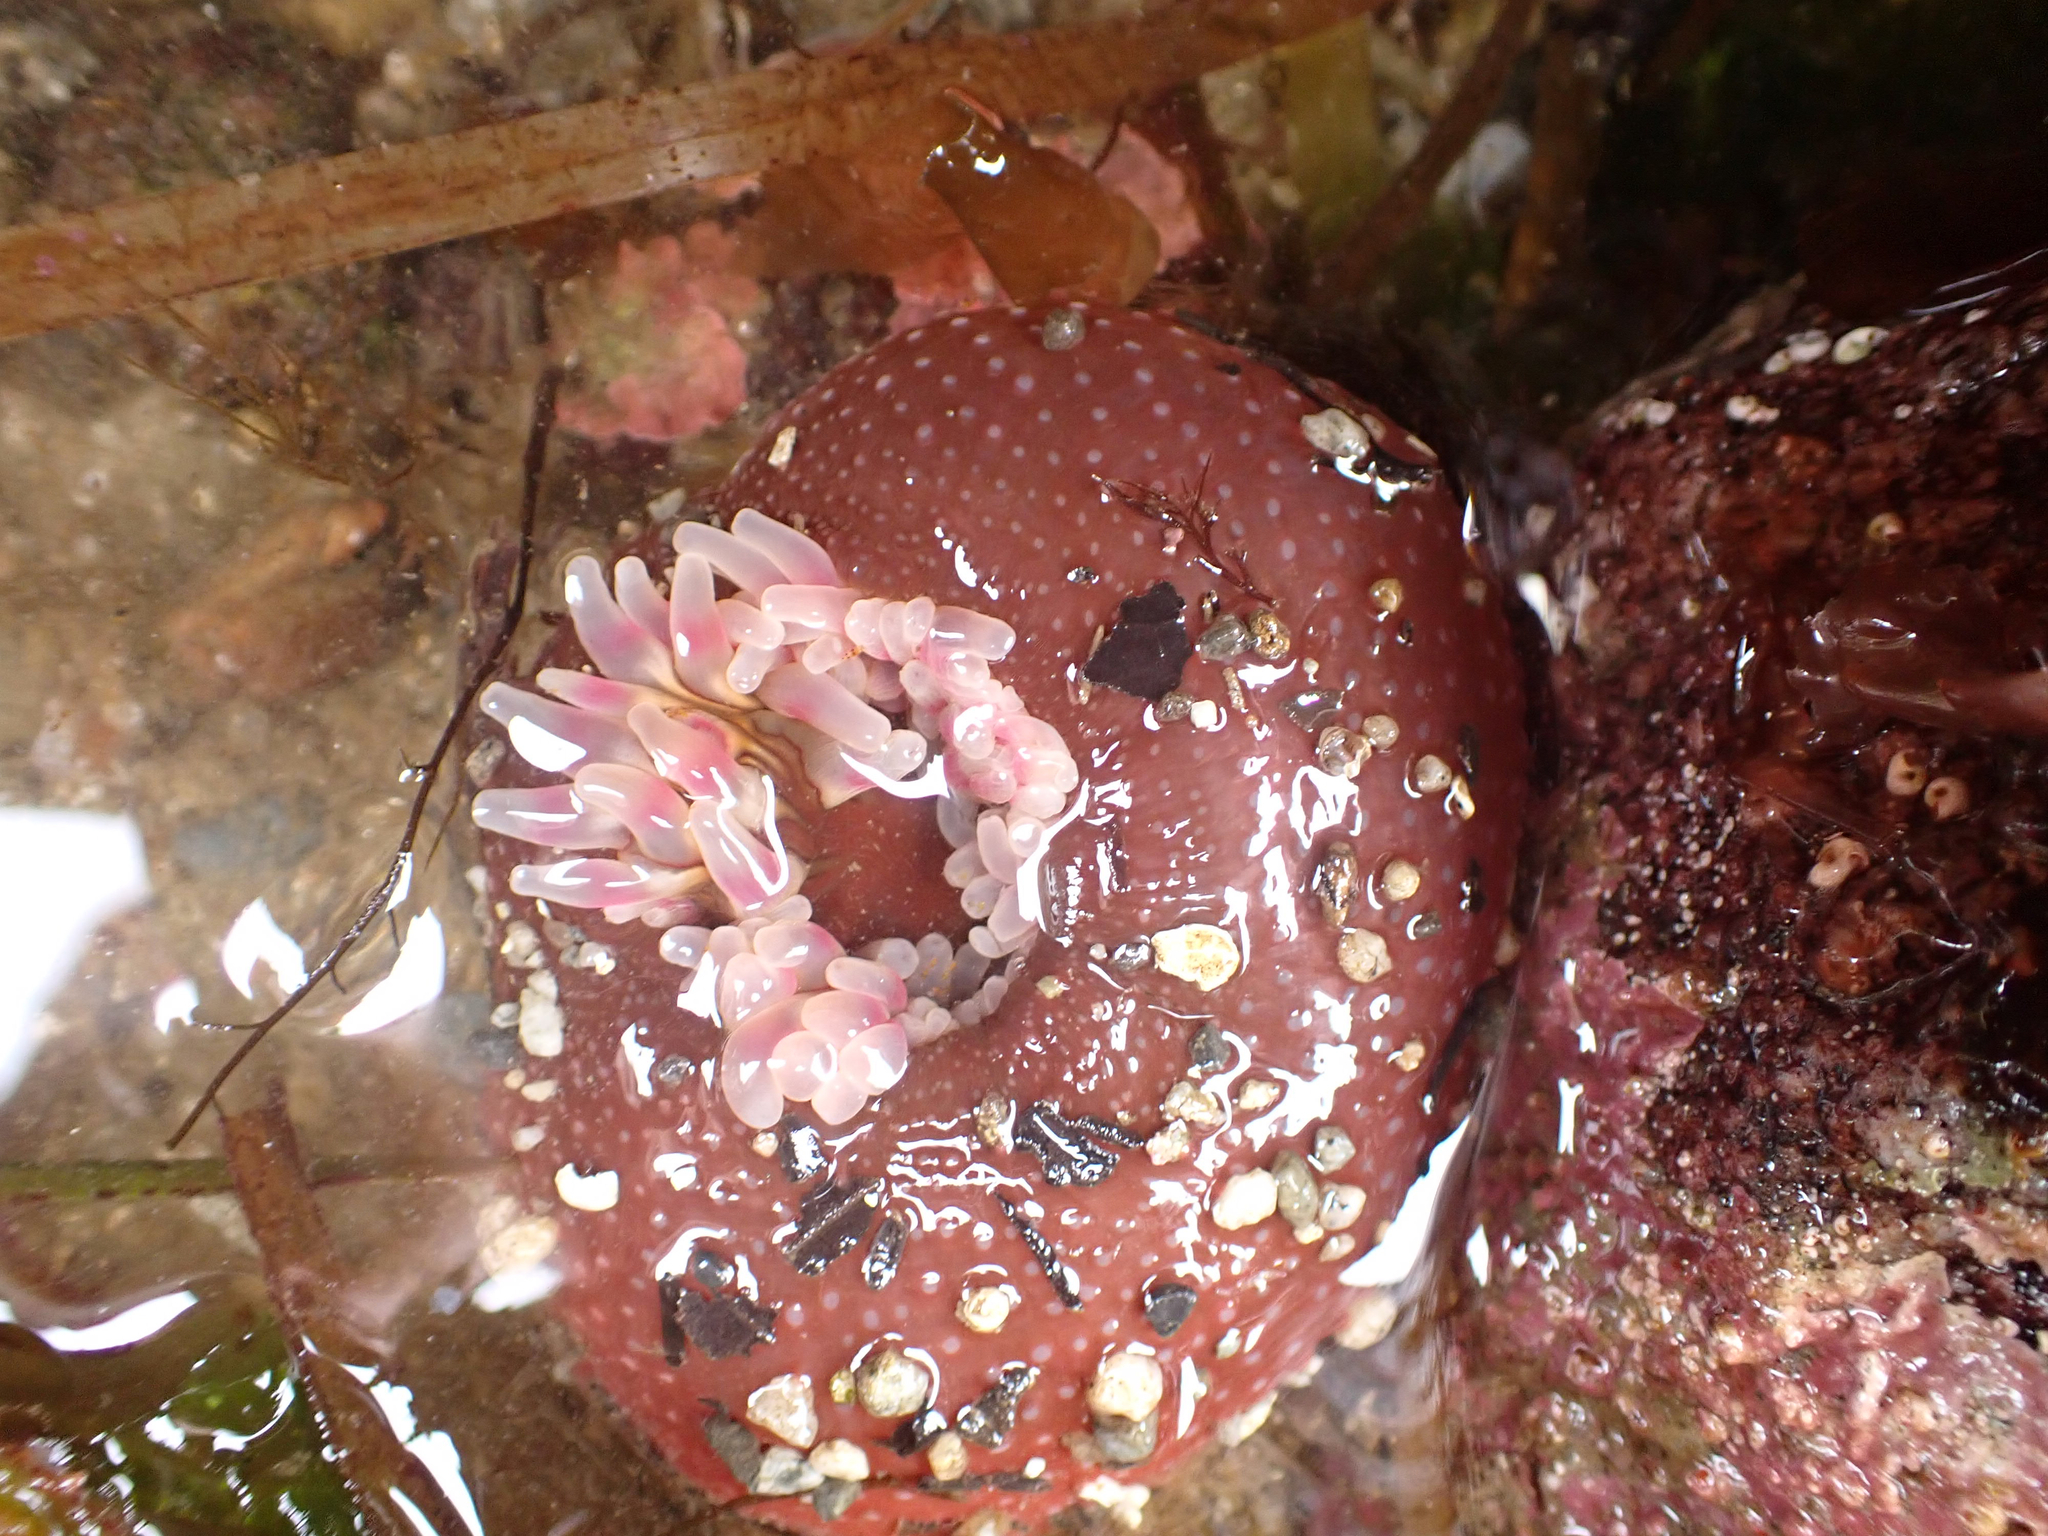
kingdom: Animalia
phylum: Cnidaria
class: Anthozoa
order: Actiniaria
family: Actiniidae
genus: Urticina
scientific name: Urticina clandestina
